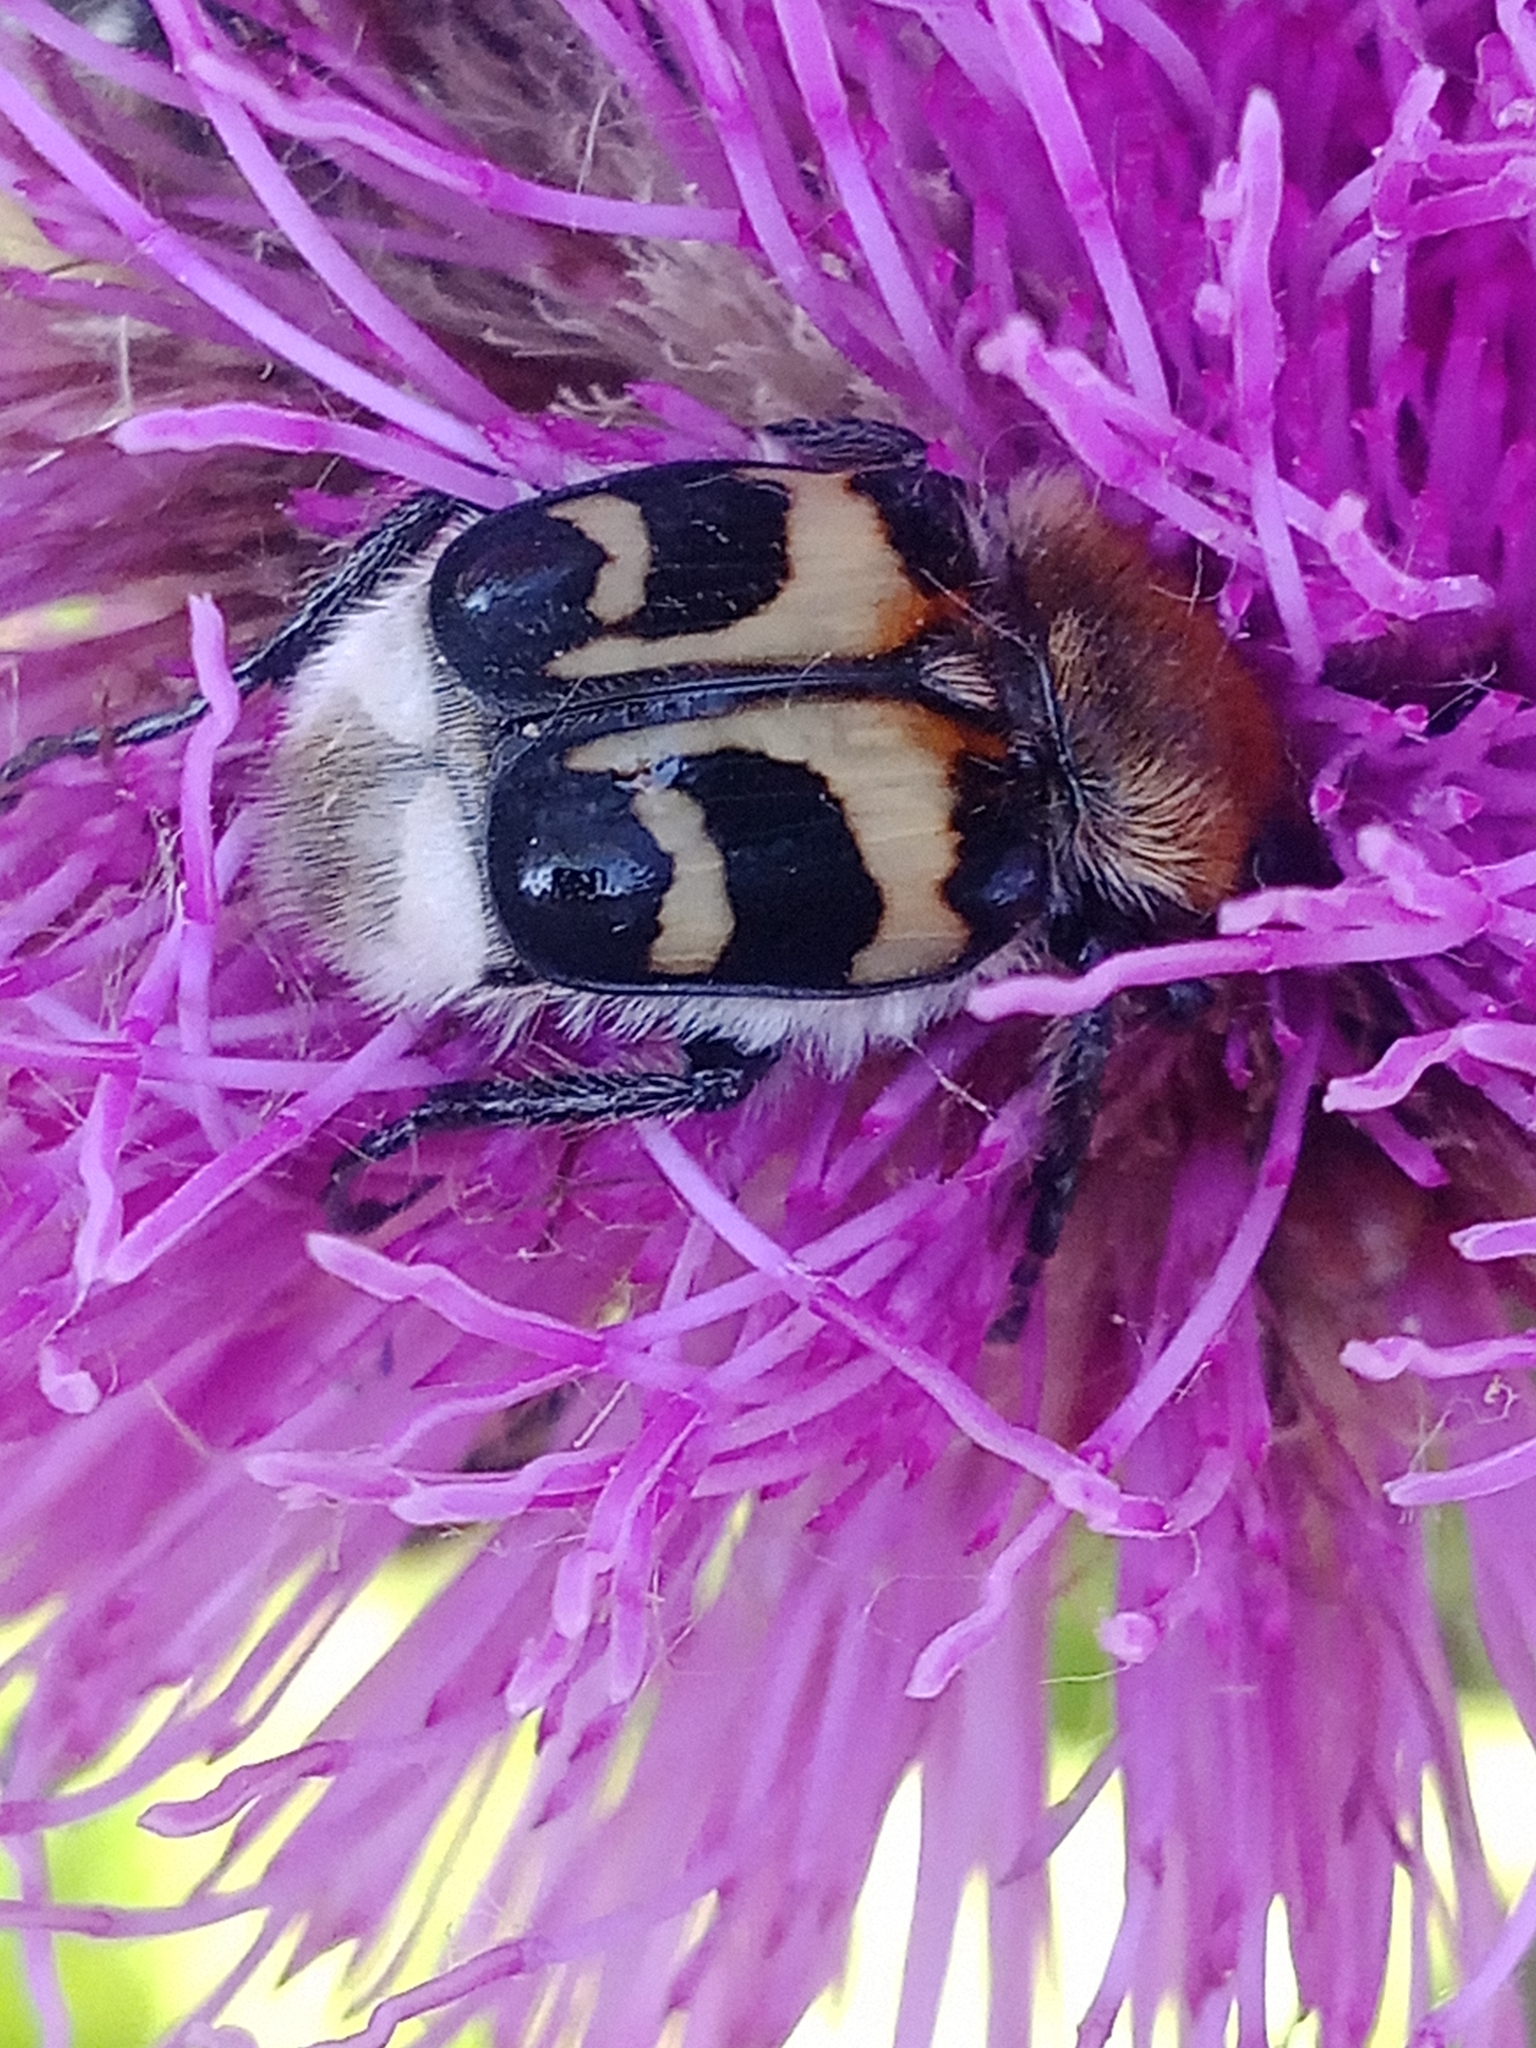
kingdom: Animalia
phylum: Arthropoda
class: Insecta
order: Coleoptera
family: Scarabaeidae
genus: Trichius
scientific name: Trichius fasciatus
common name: Bee beetle
